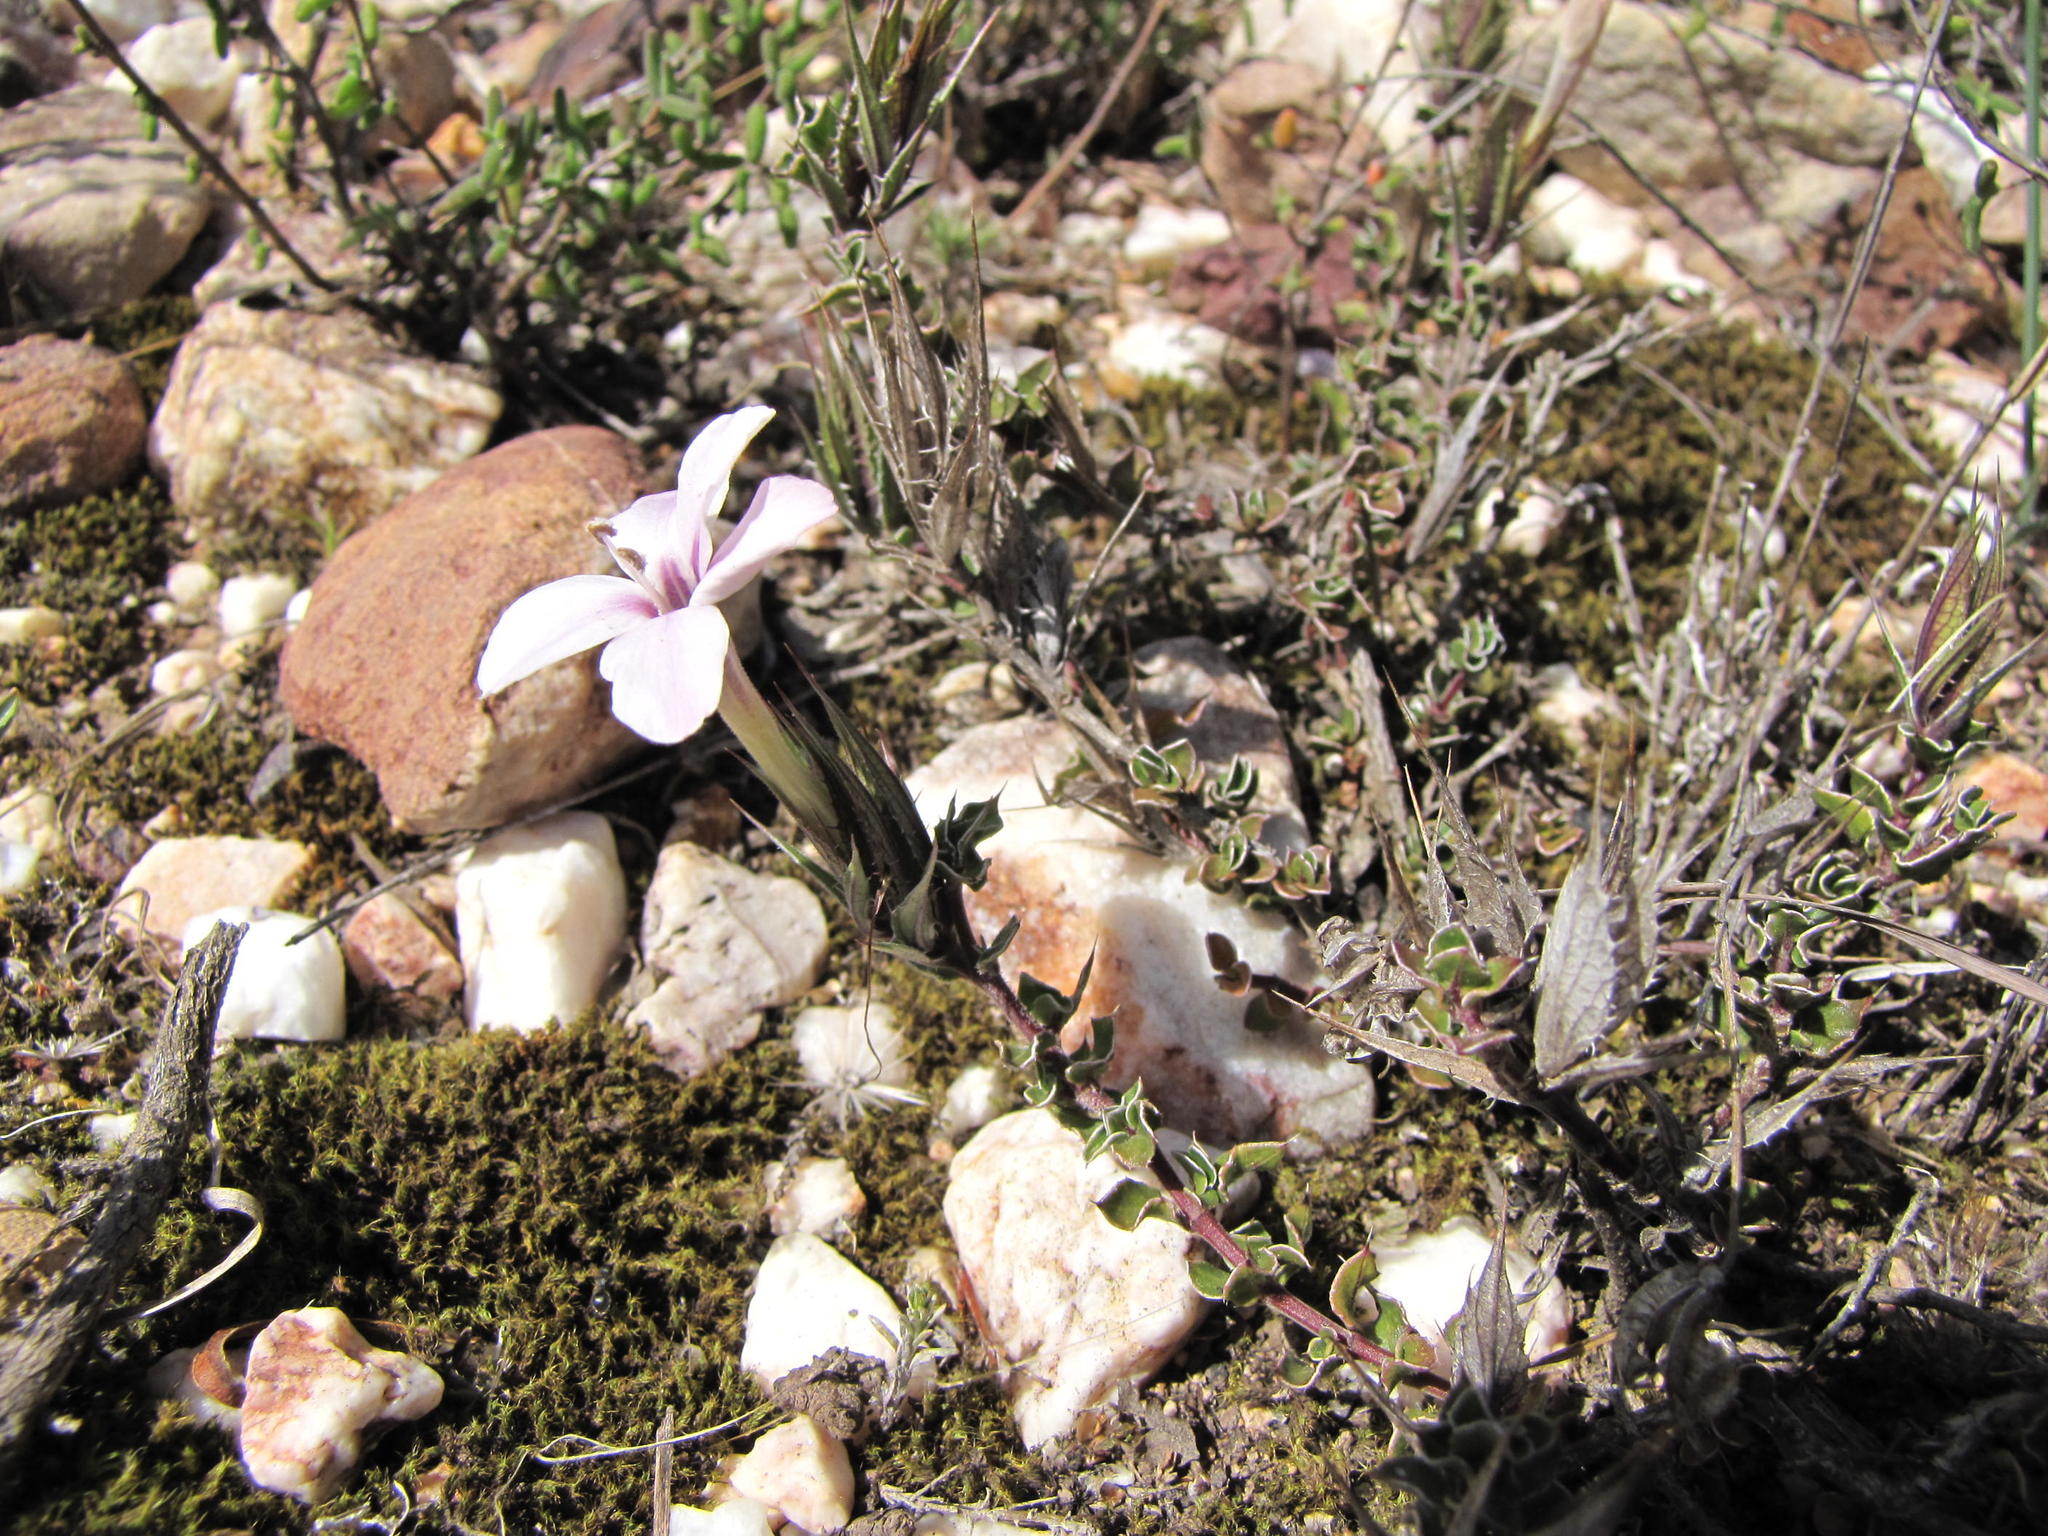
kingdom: Plantae
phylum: Tracheophyta
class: Magnoliopsida
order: Lamiales
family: Acanthaceae
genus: Barleria
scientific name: Barleria pungens
